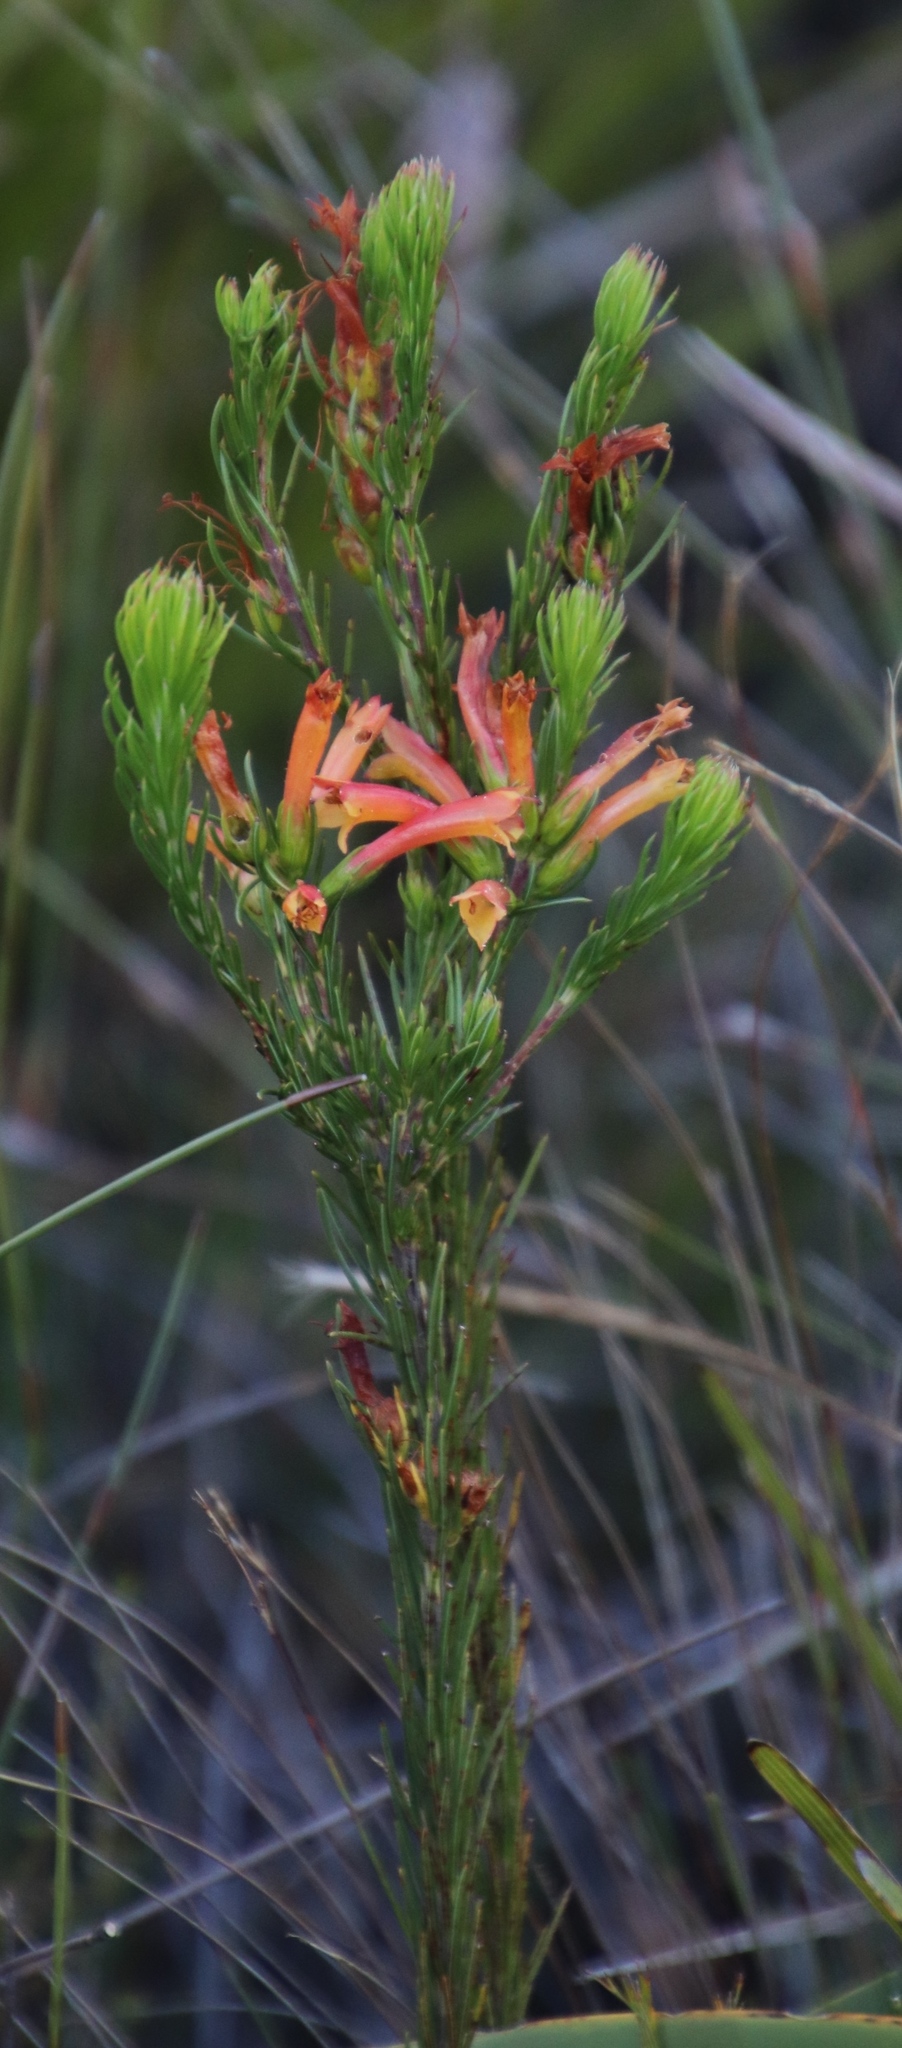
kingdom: Plantae
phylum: Tracheophyta
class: Magnoliopsida
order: Ericales
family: Ericaceae
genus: Erica
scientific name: Erica grandiflora
